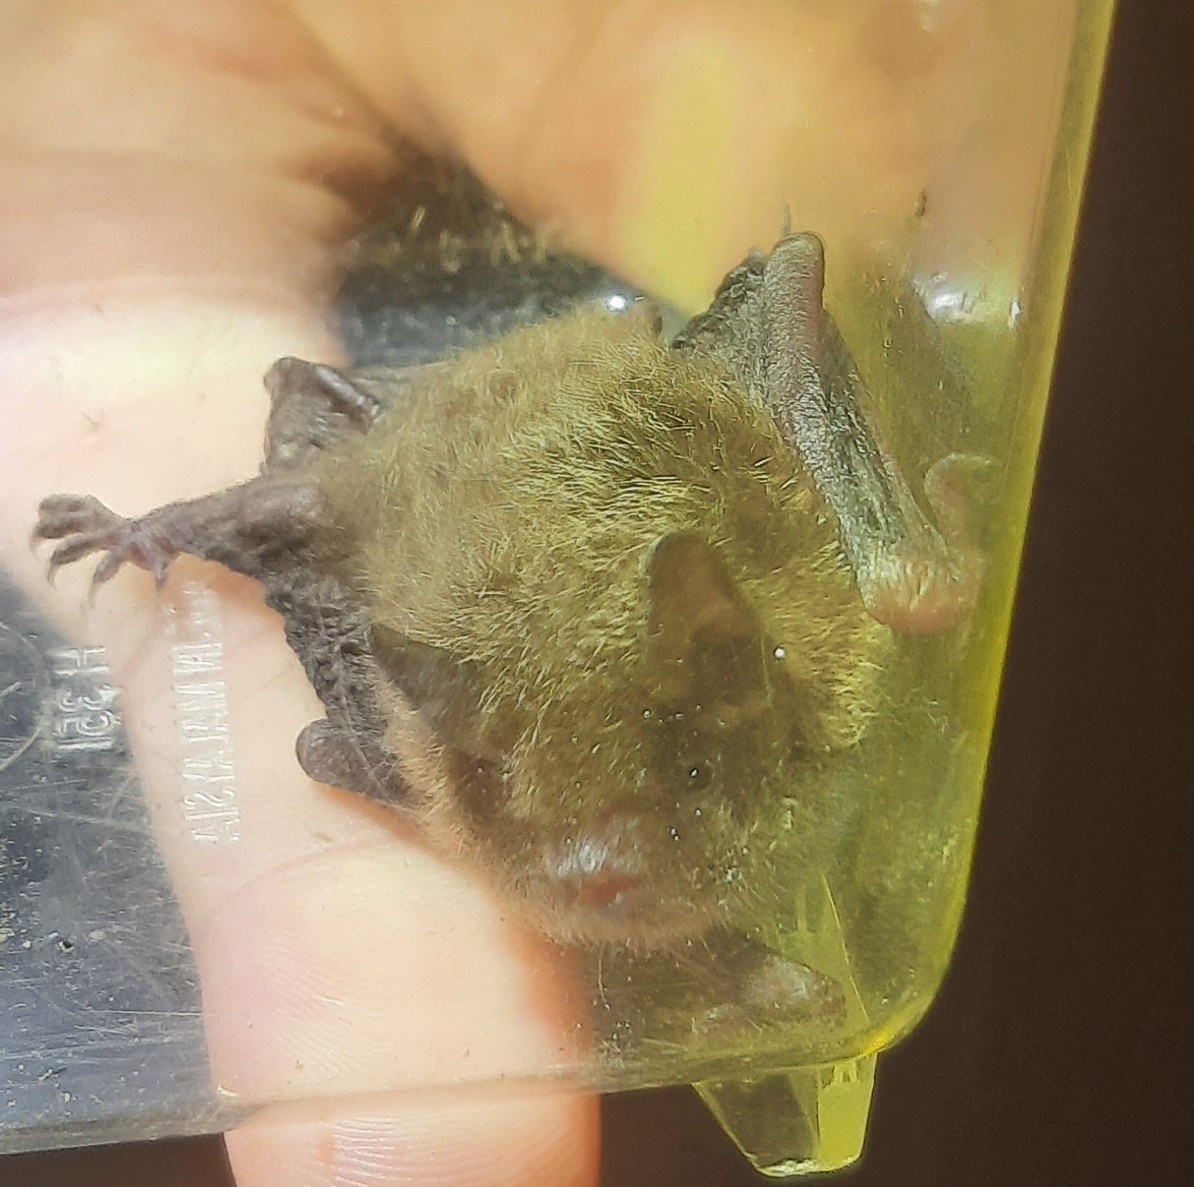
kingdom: Animalia
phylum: Chordata
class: Mammalia
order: Chiroptera
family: Vespertilionidae
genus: Myotis
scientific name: Myotis daubentonii
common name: Daubenton's myotis
